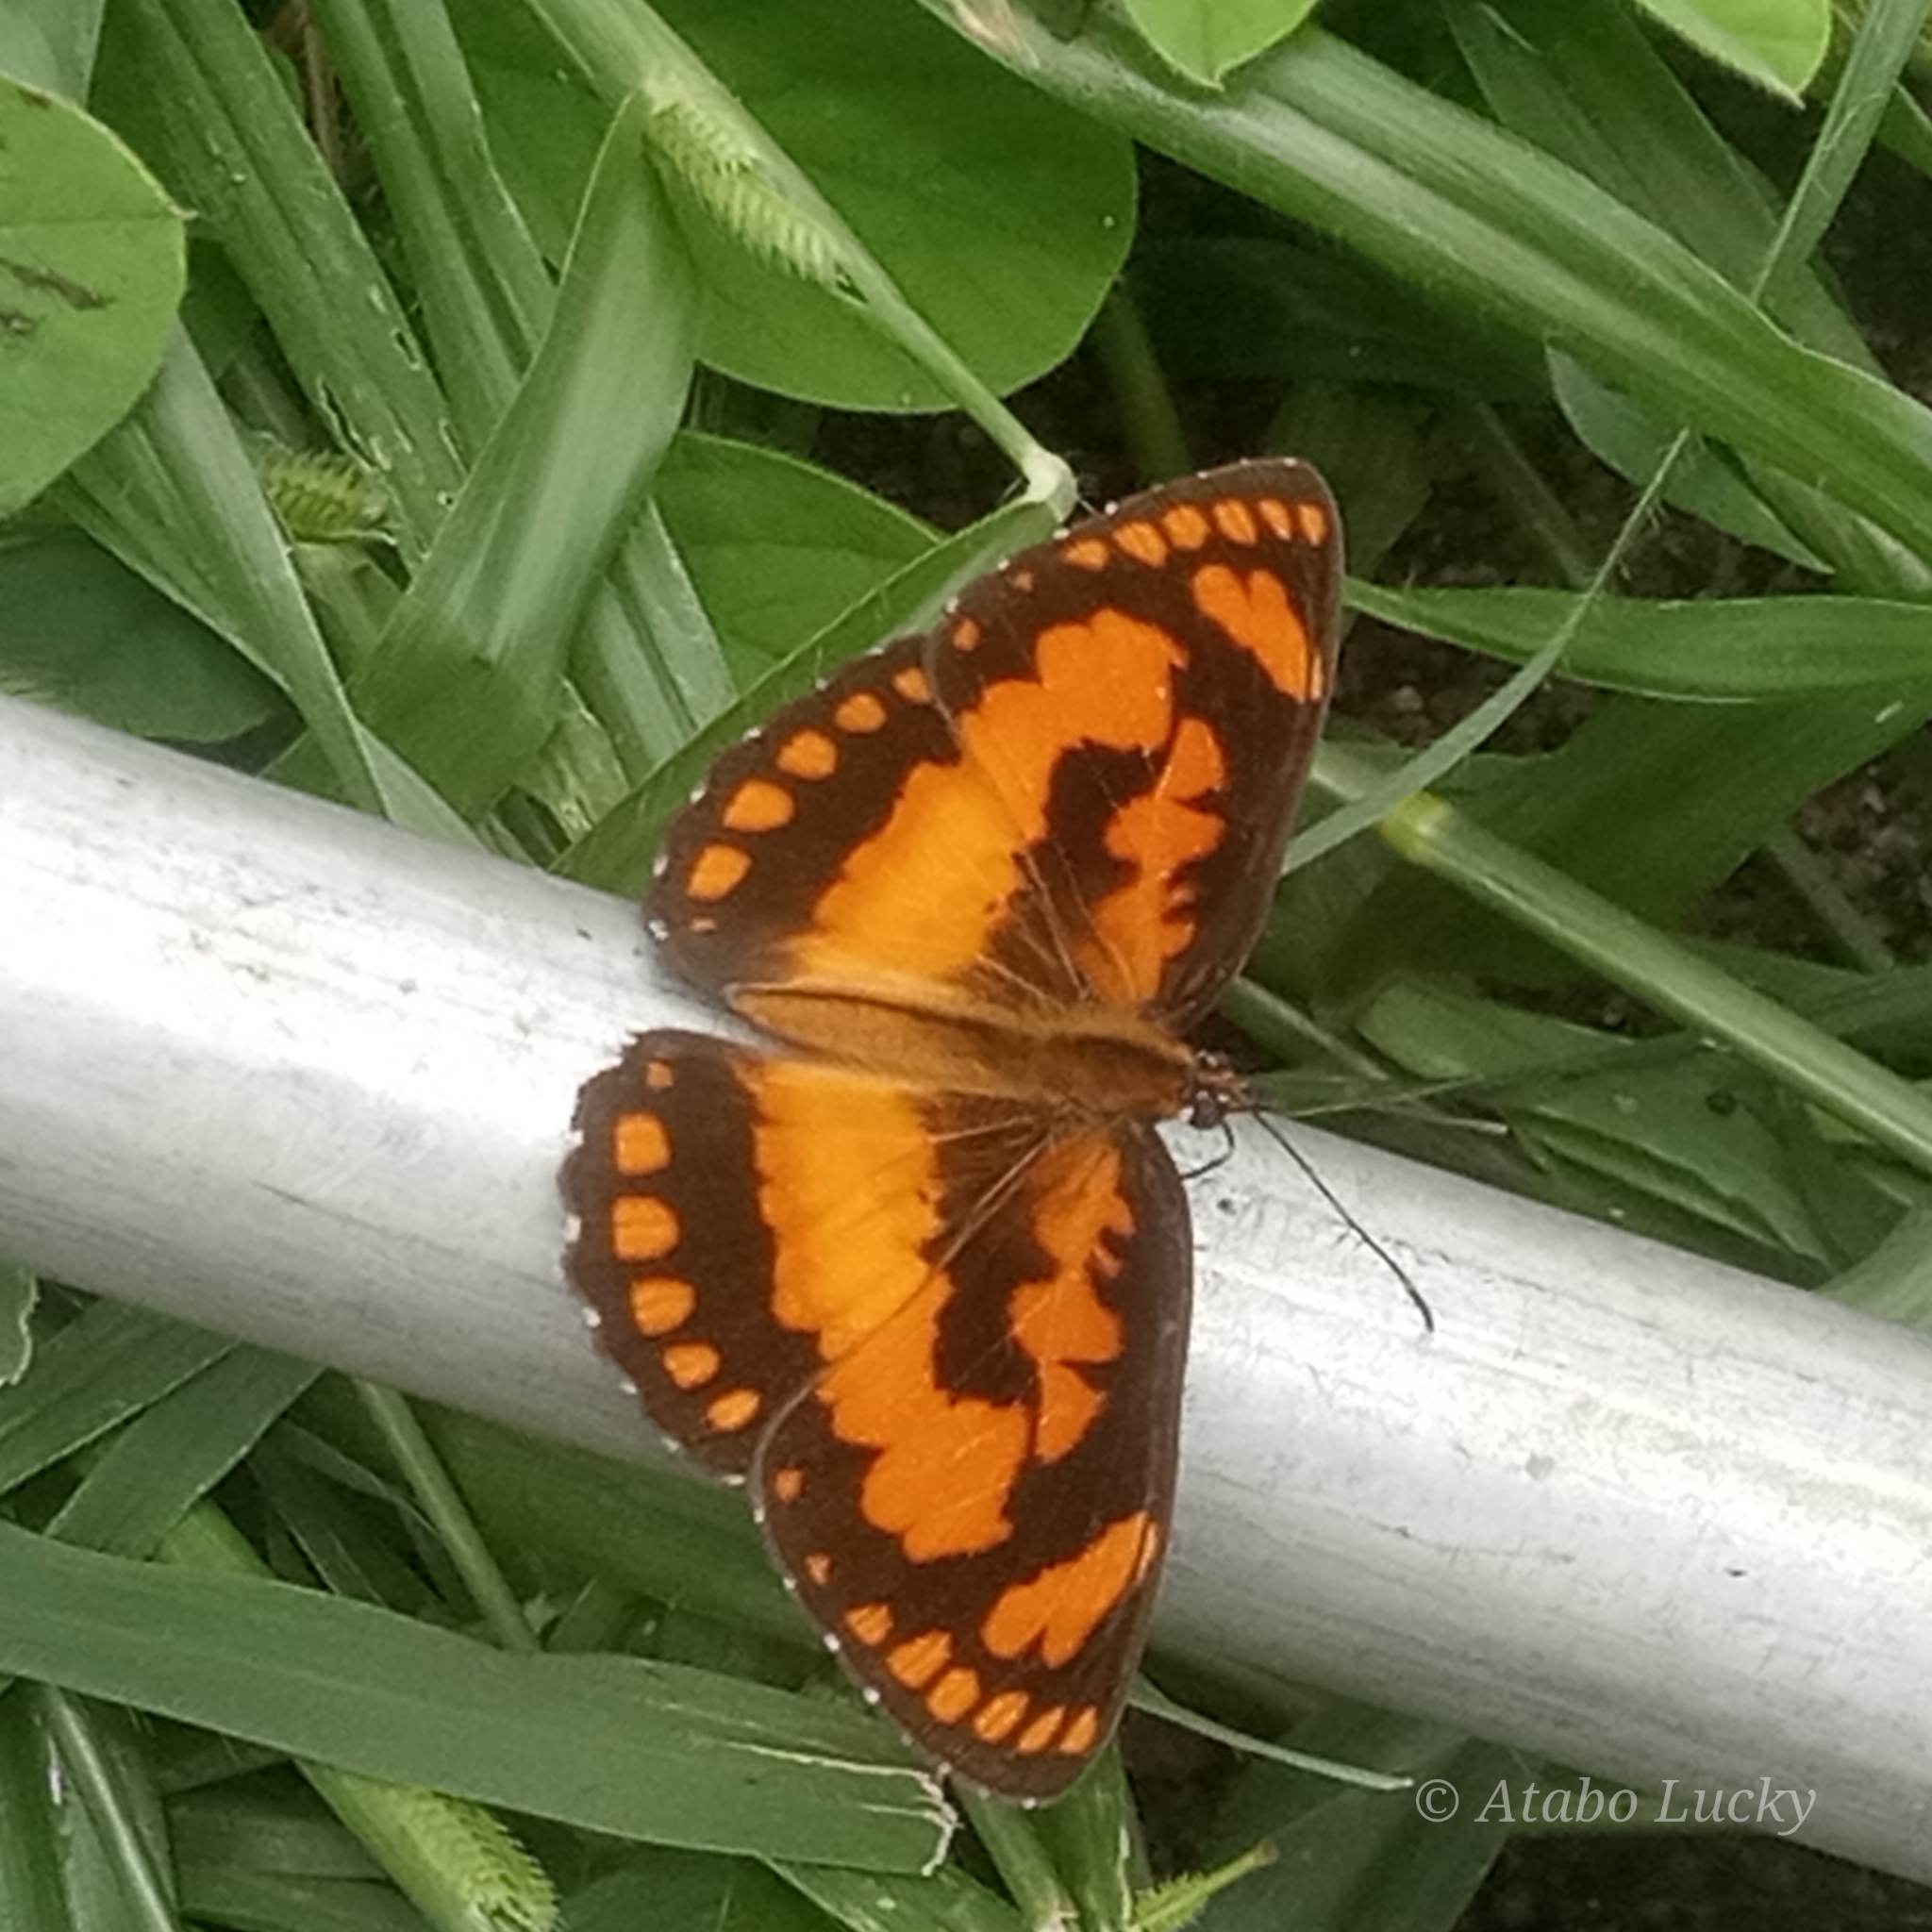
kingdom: Animalia
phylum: Arthropoda
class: Insecta
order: Lepidoptera
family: Nymphalidae
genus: Byblia
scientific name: Byblia anvatara
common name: African joker
